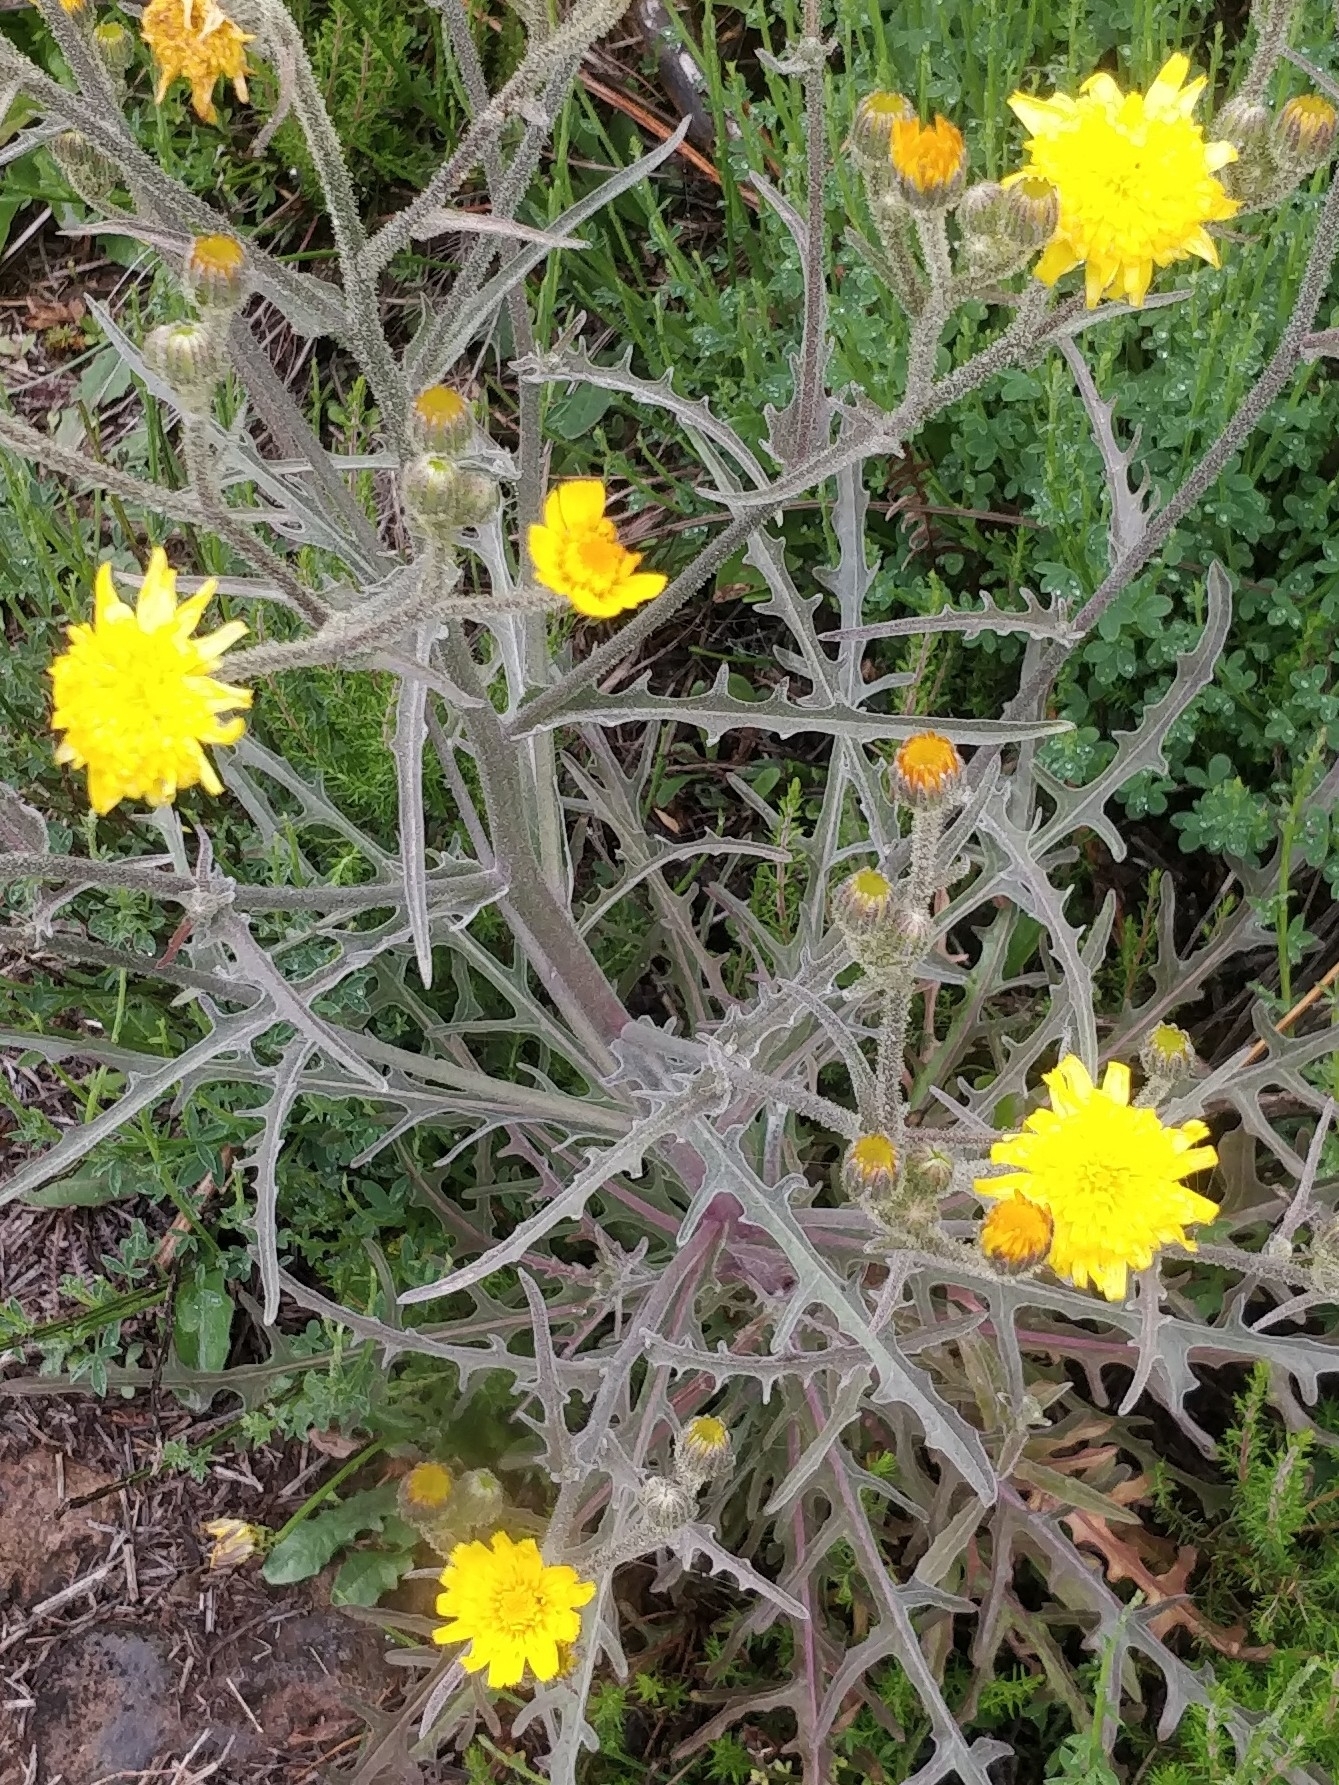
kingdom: Plantae
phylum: Tracheophyta
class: Magnoliopsida
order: Asterales
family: Asteraceae
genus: Andryala
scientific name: Andryala glandulosa
